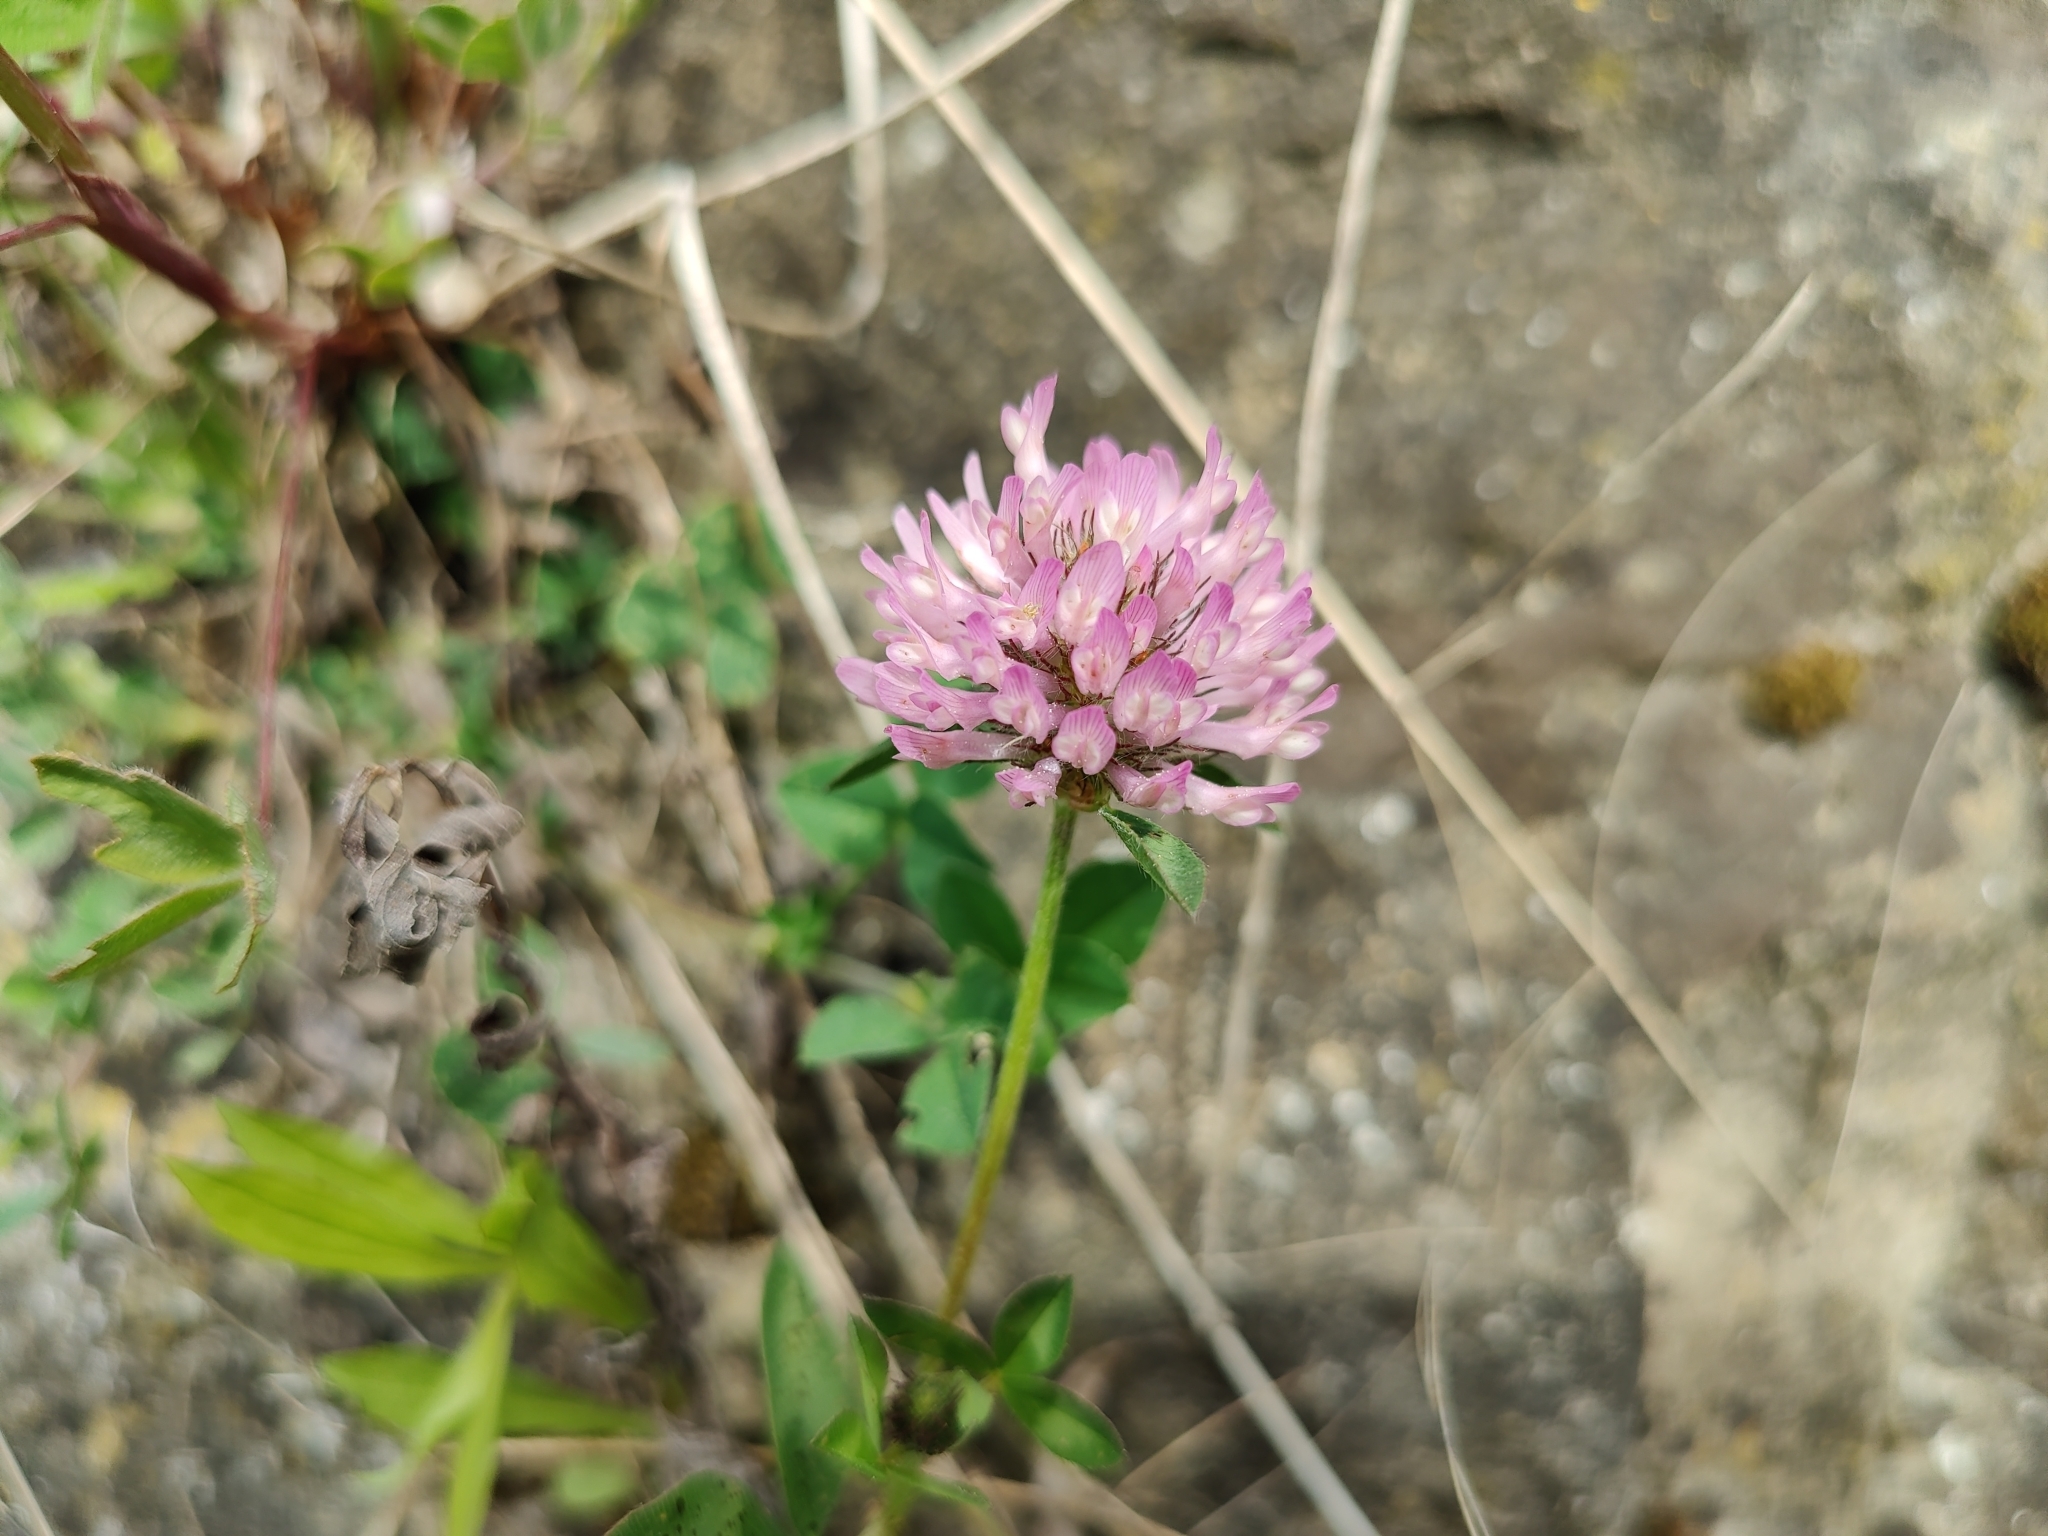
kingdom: Plantae
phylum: Tracheophyta
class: Magnoliopsida
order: Fabales
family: Fabaceae
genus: Trifolium
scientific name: Trifolium pratense
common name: Red clover
